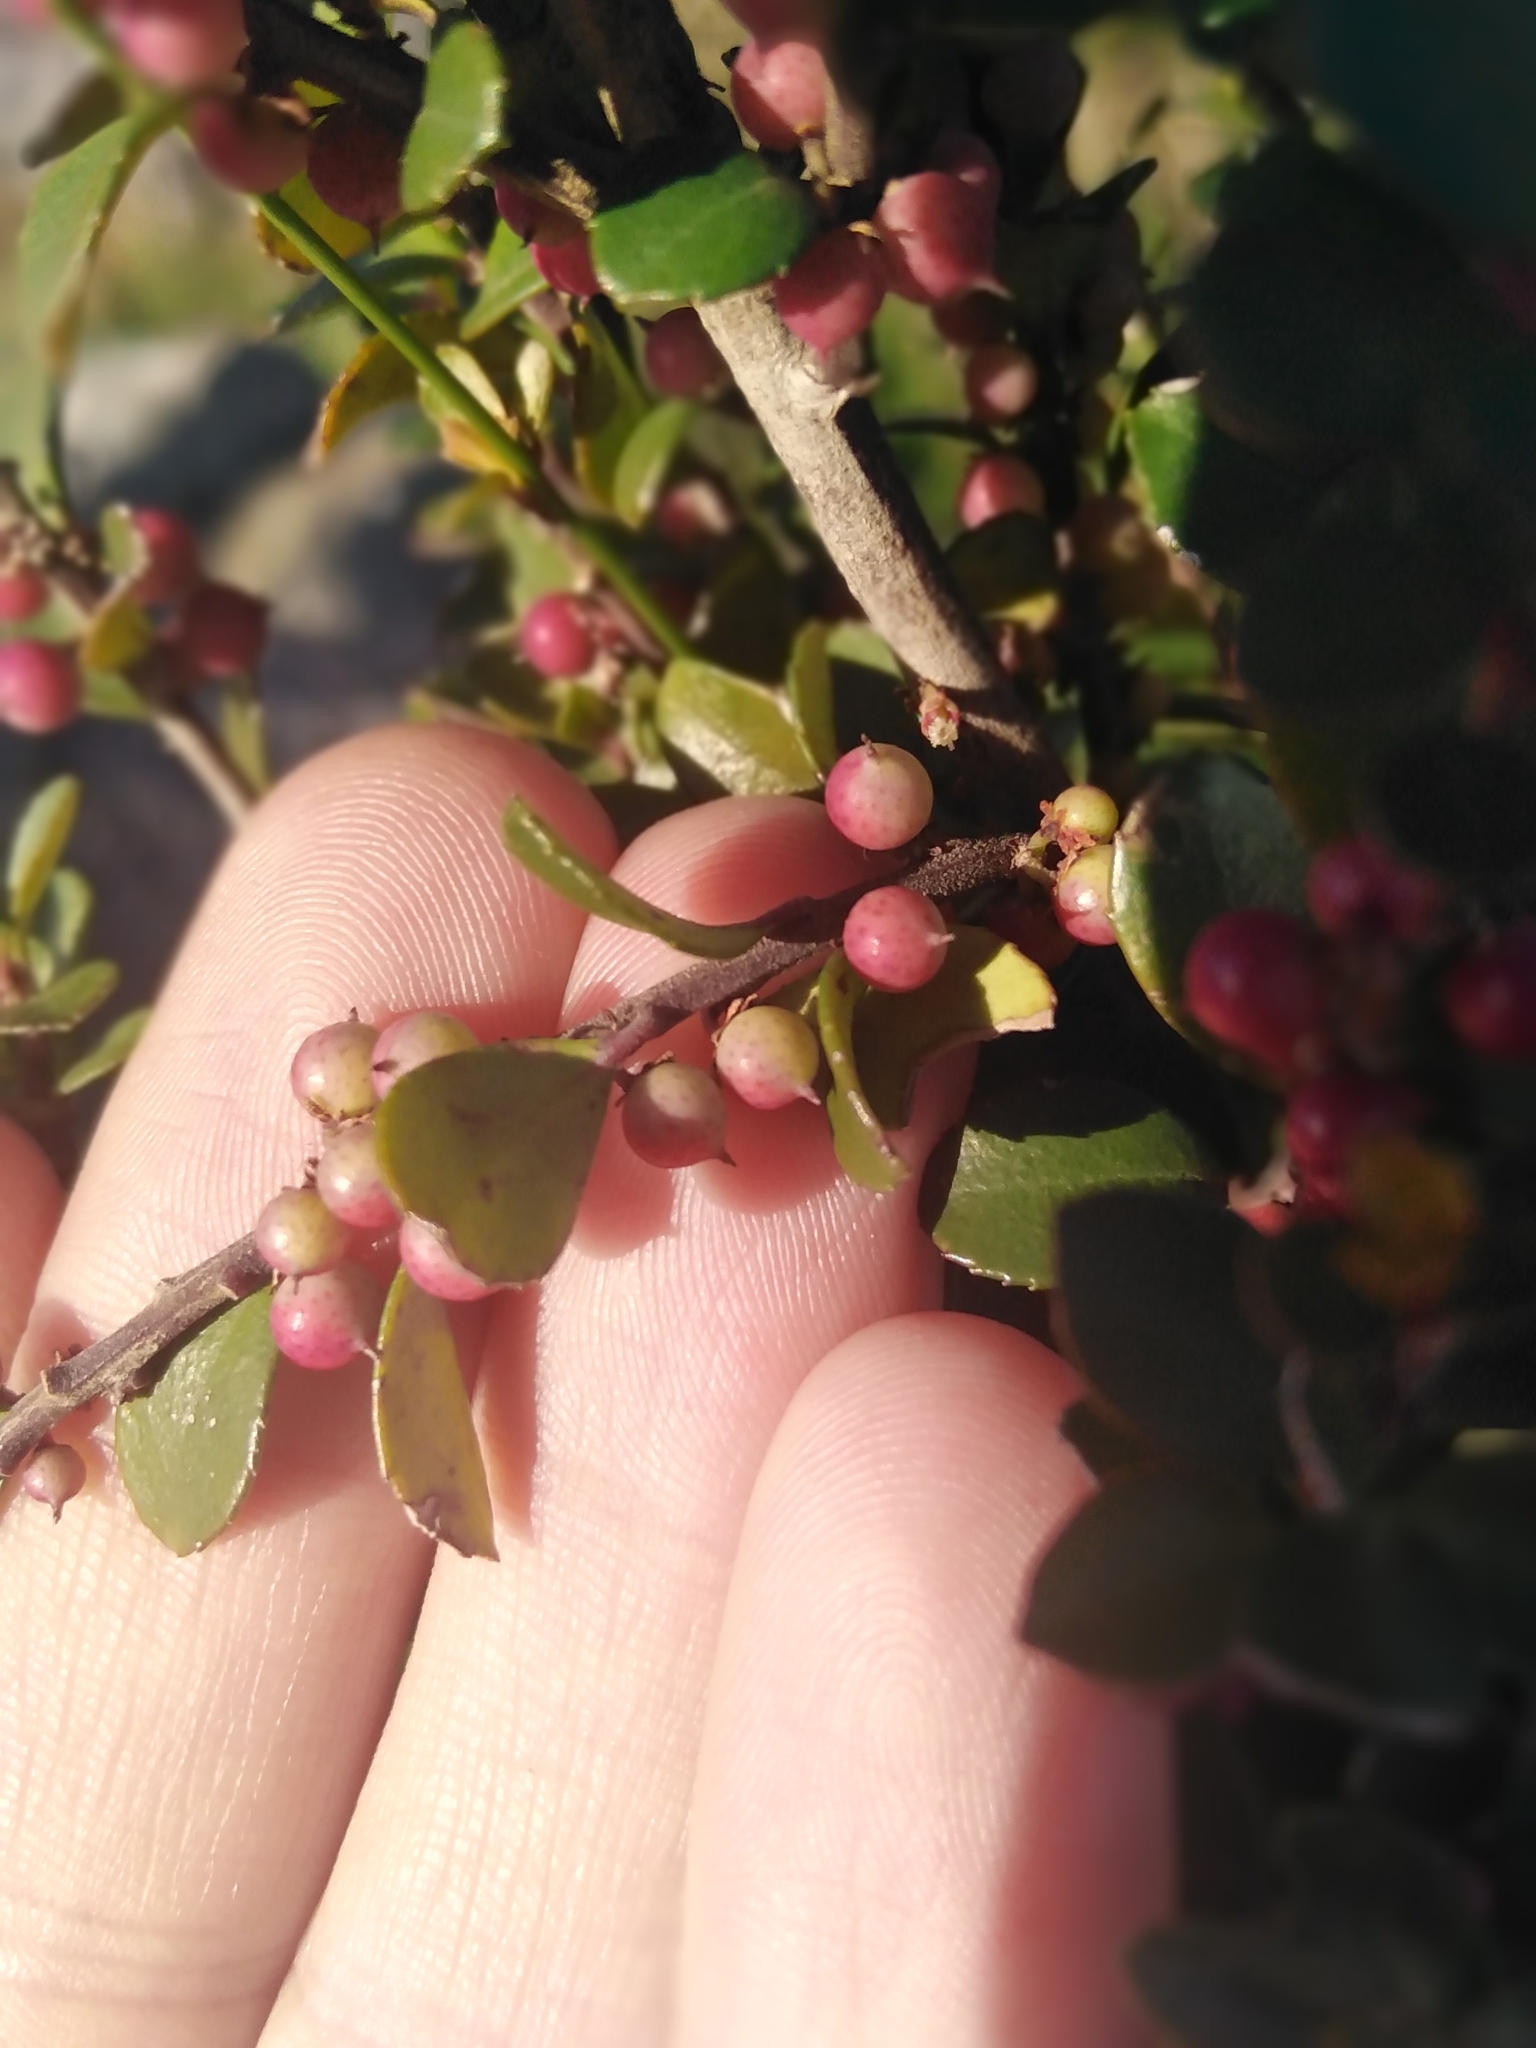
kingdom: Plantae
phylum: Tracheophyta
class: Magnoliopsida
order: Ericales
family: Primulaceae
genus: Myrsine
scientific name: Myrsine africana
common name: African-boxwood
